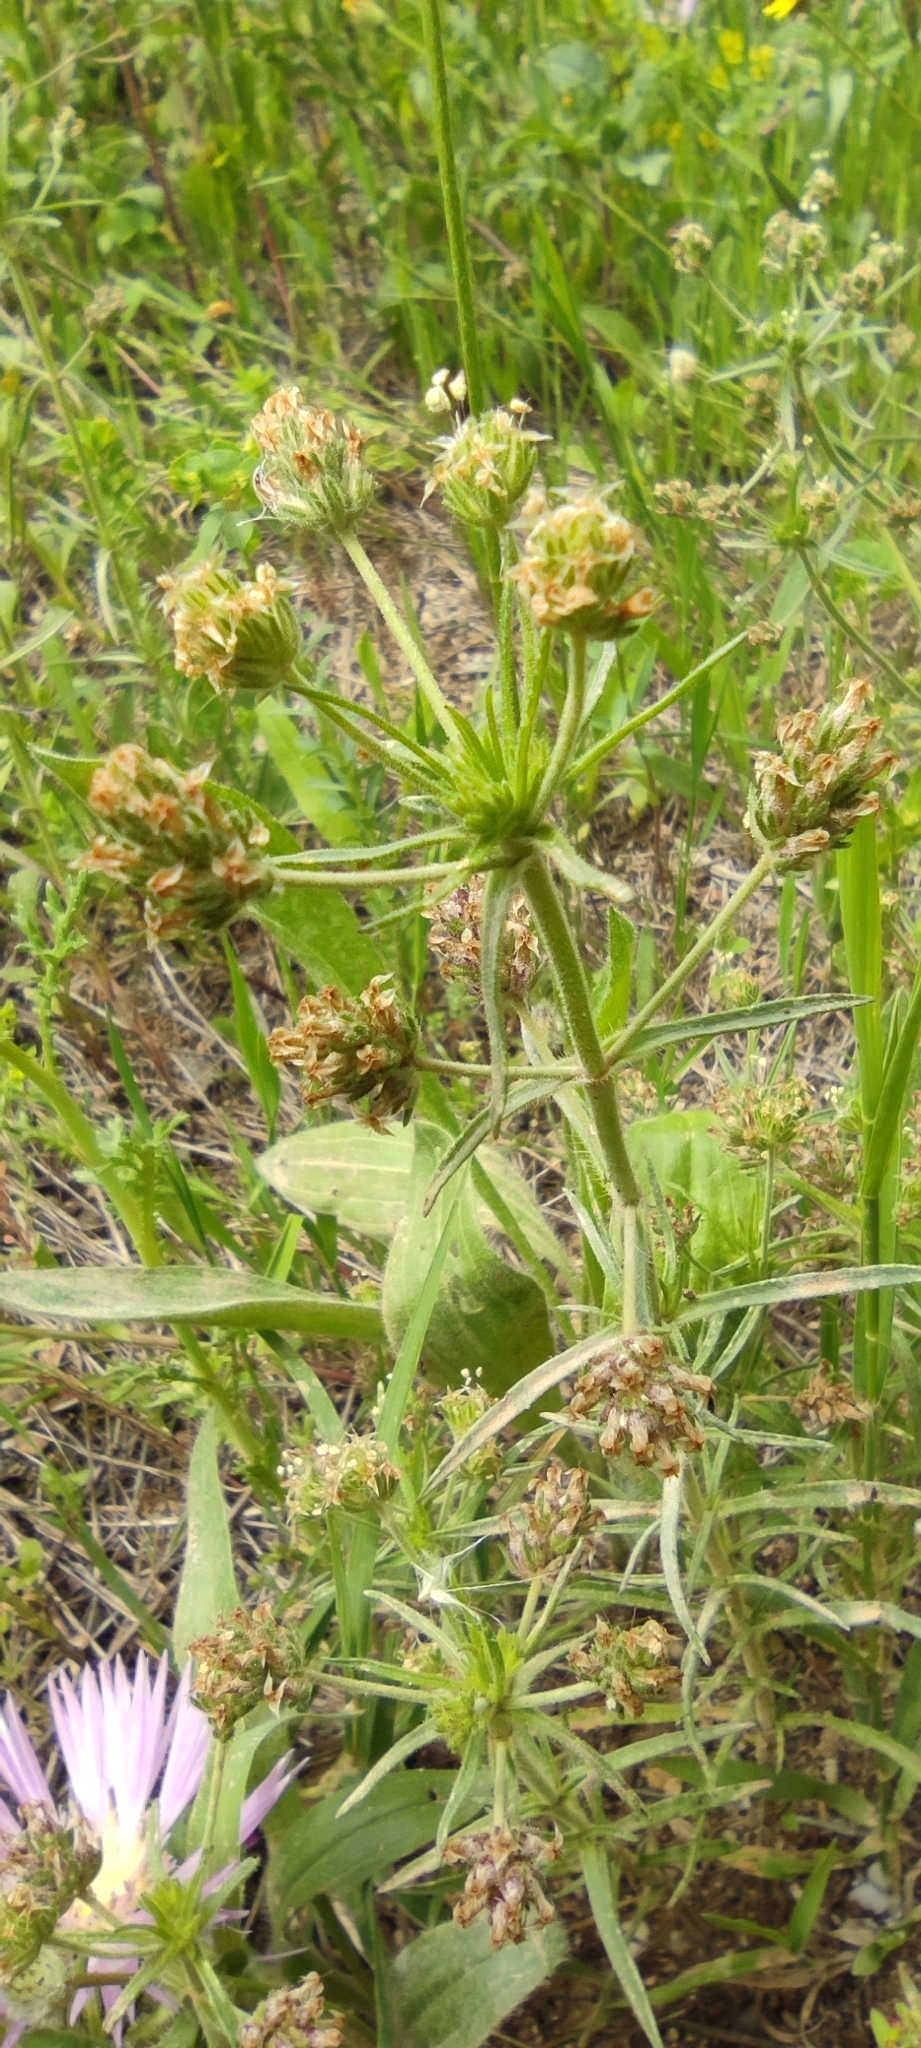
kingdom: Plantae
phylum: Tracheophyta
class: Magnoliopsida
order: Lamiales
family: Plantaginaceae
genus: Plantago
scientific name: Plantago afra
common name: Glandular plantain
